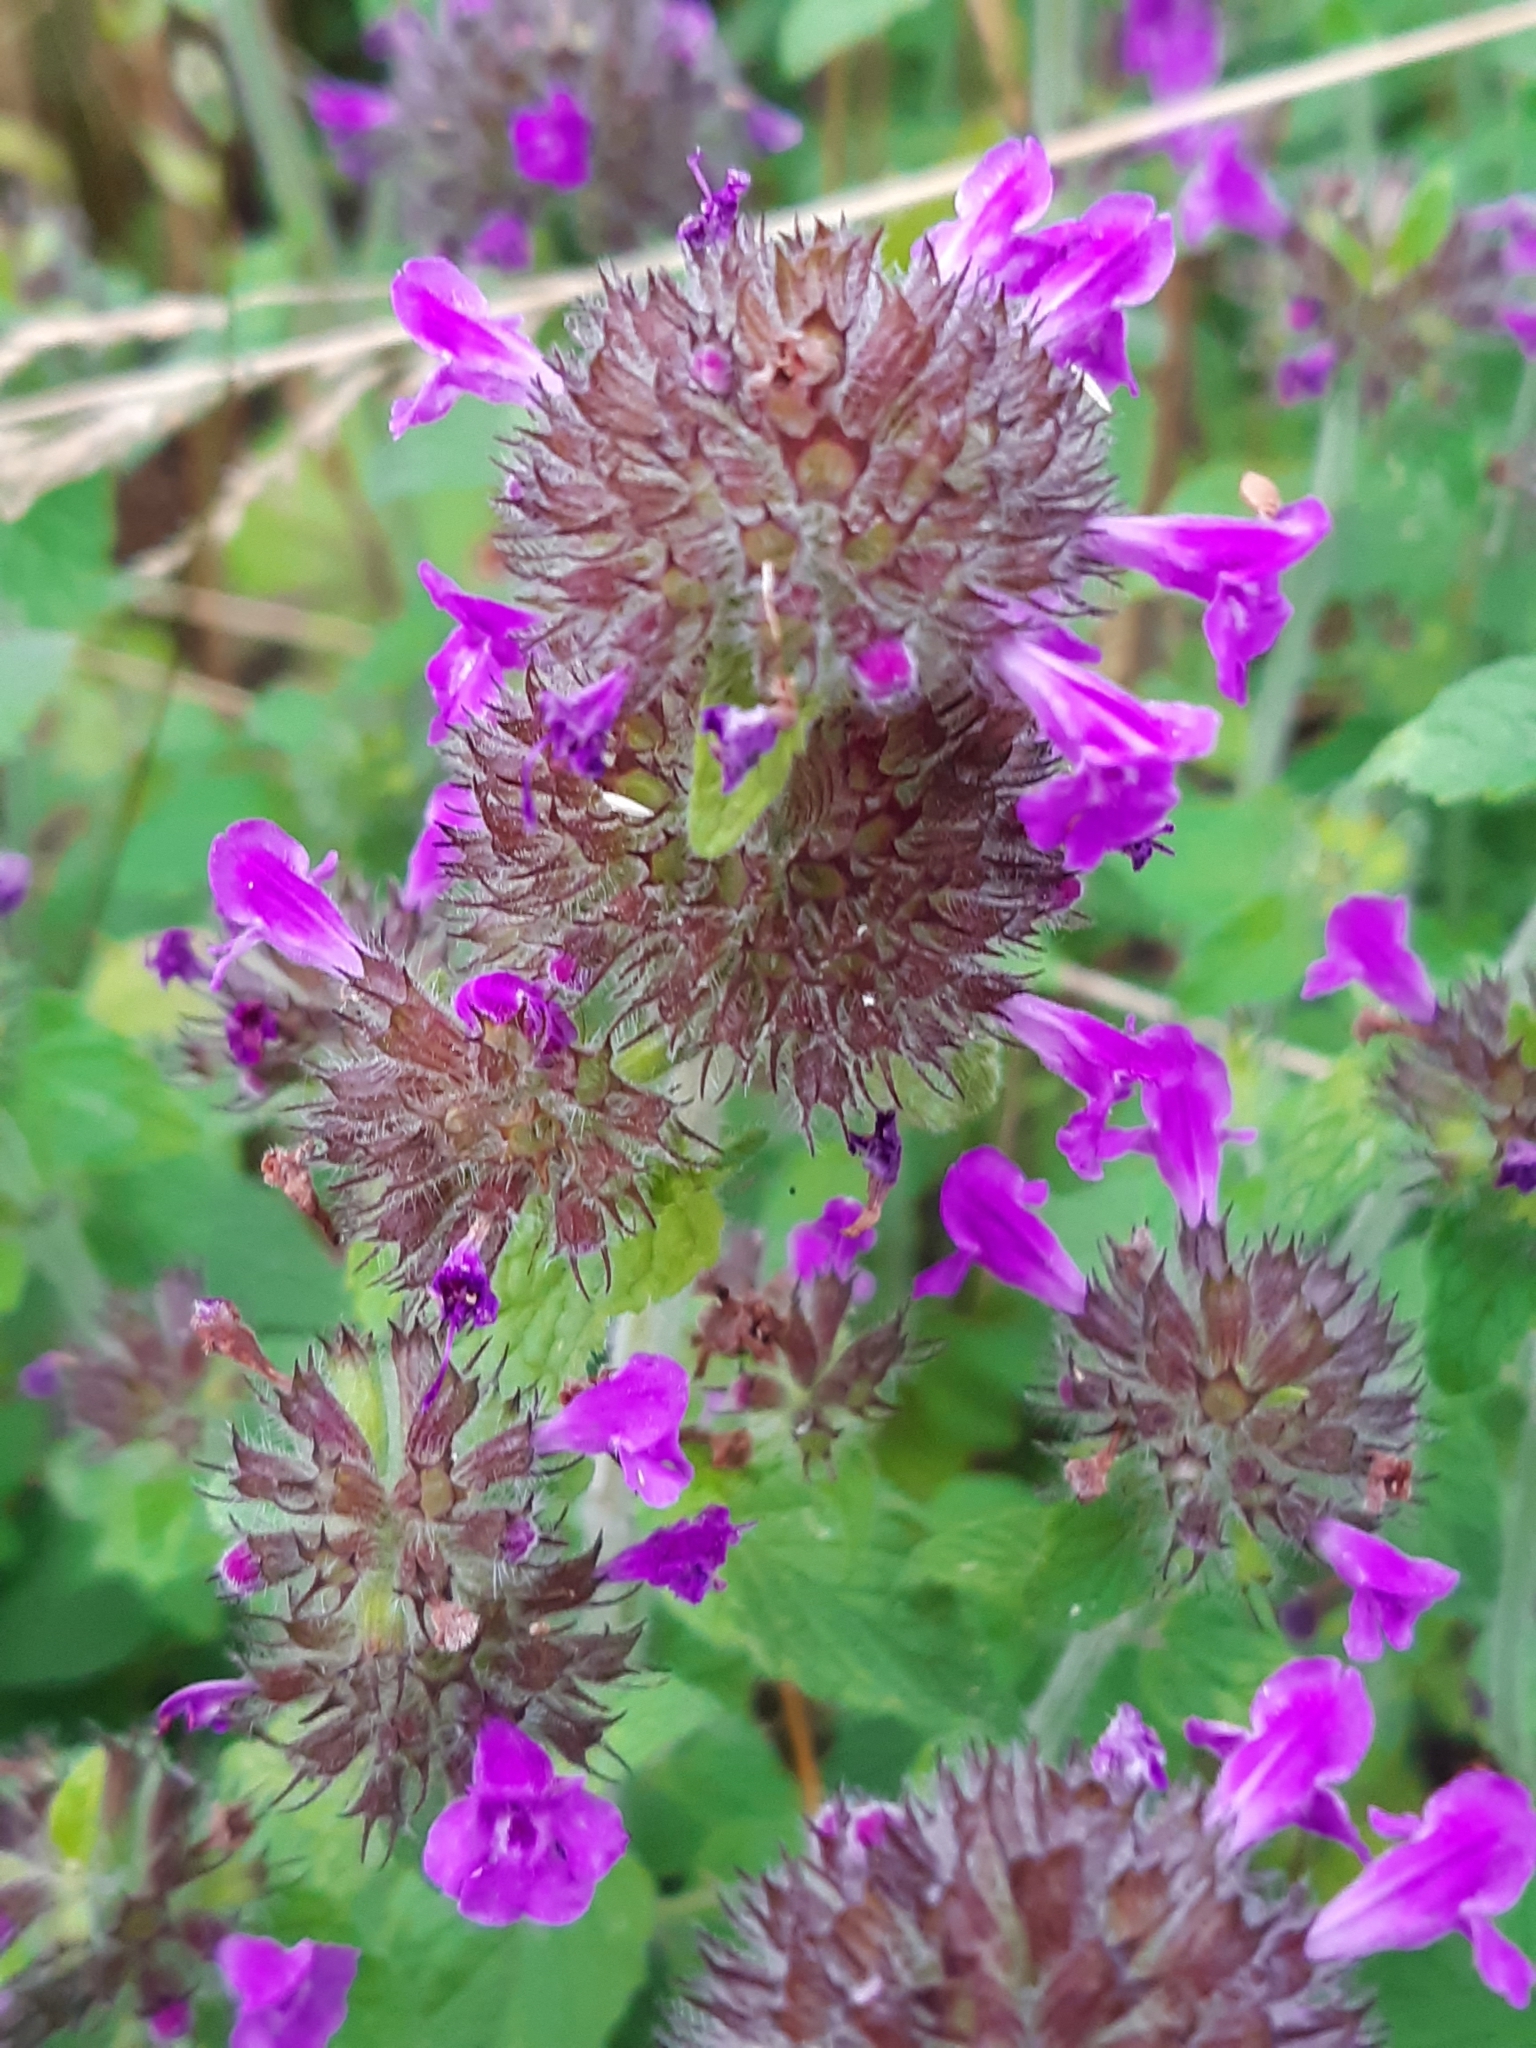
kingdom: Plantae
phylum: Tracheophyta
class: Magnoliopsida
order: Lamiales
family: Lamiaceae
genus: Clinopodium
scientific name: Clinopodium vulgare
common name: Wild basil
